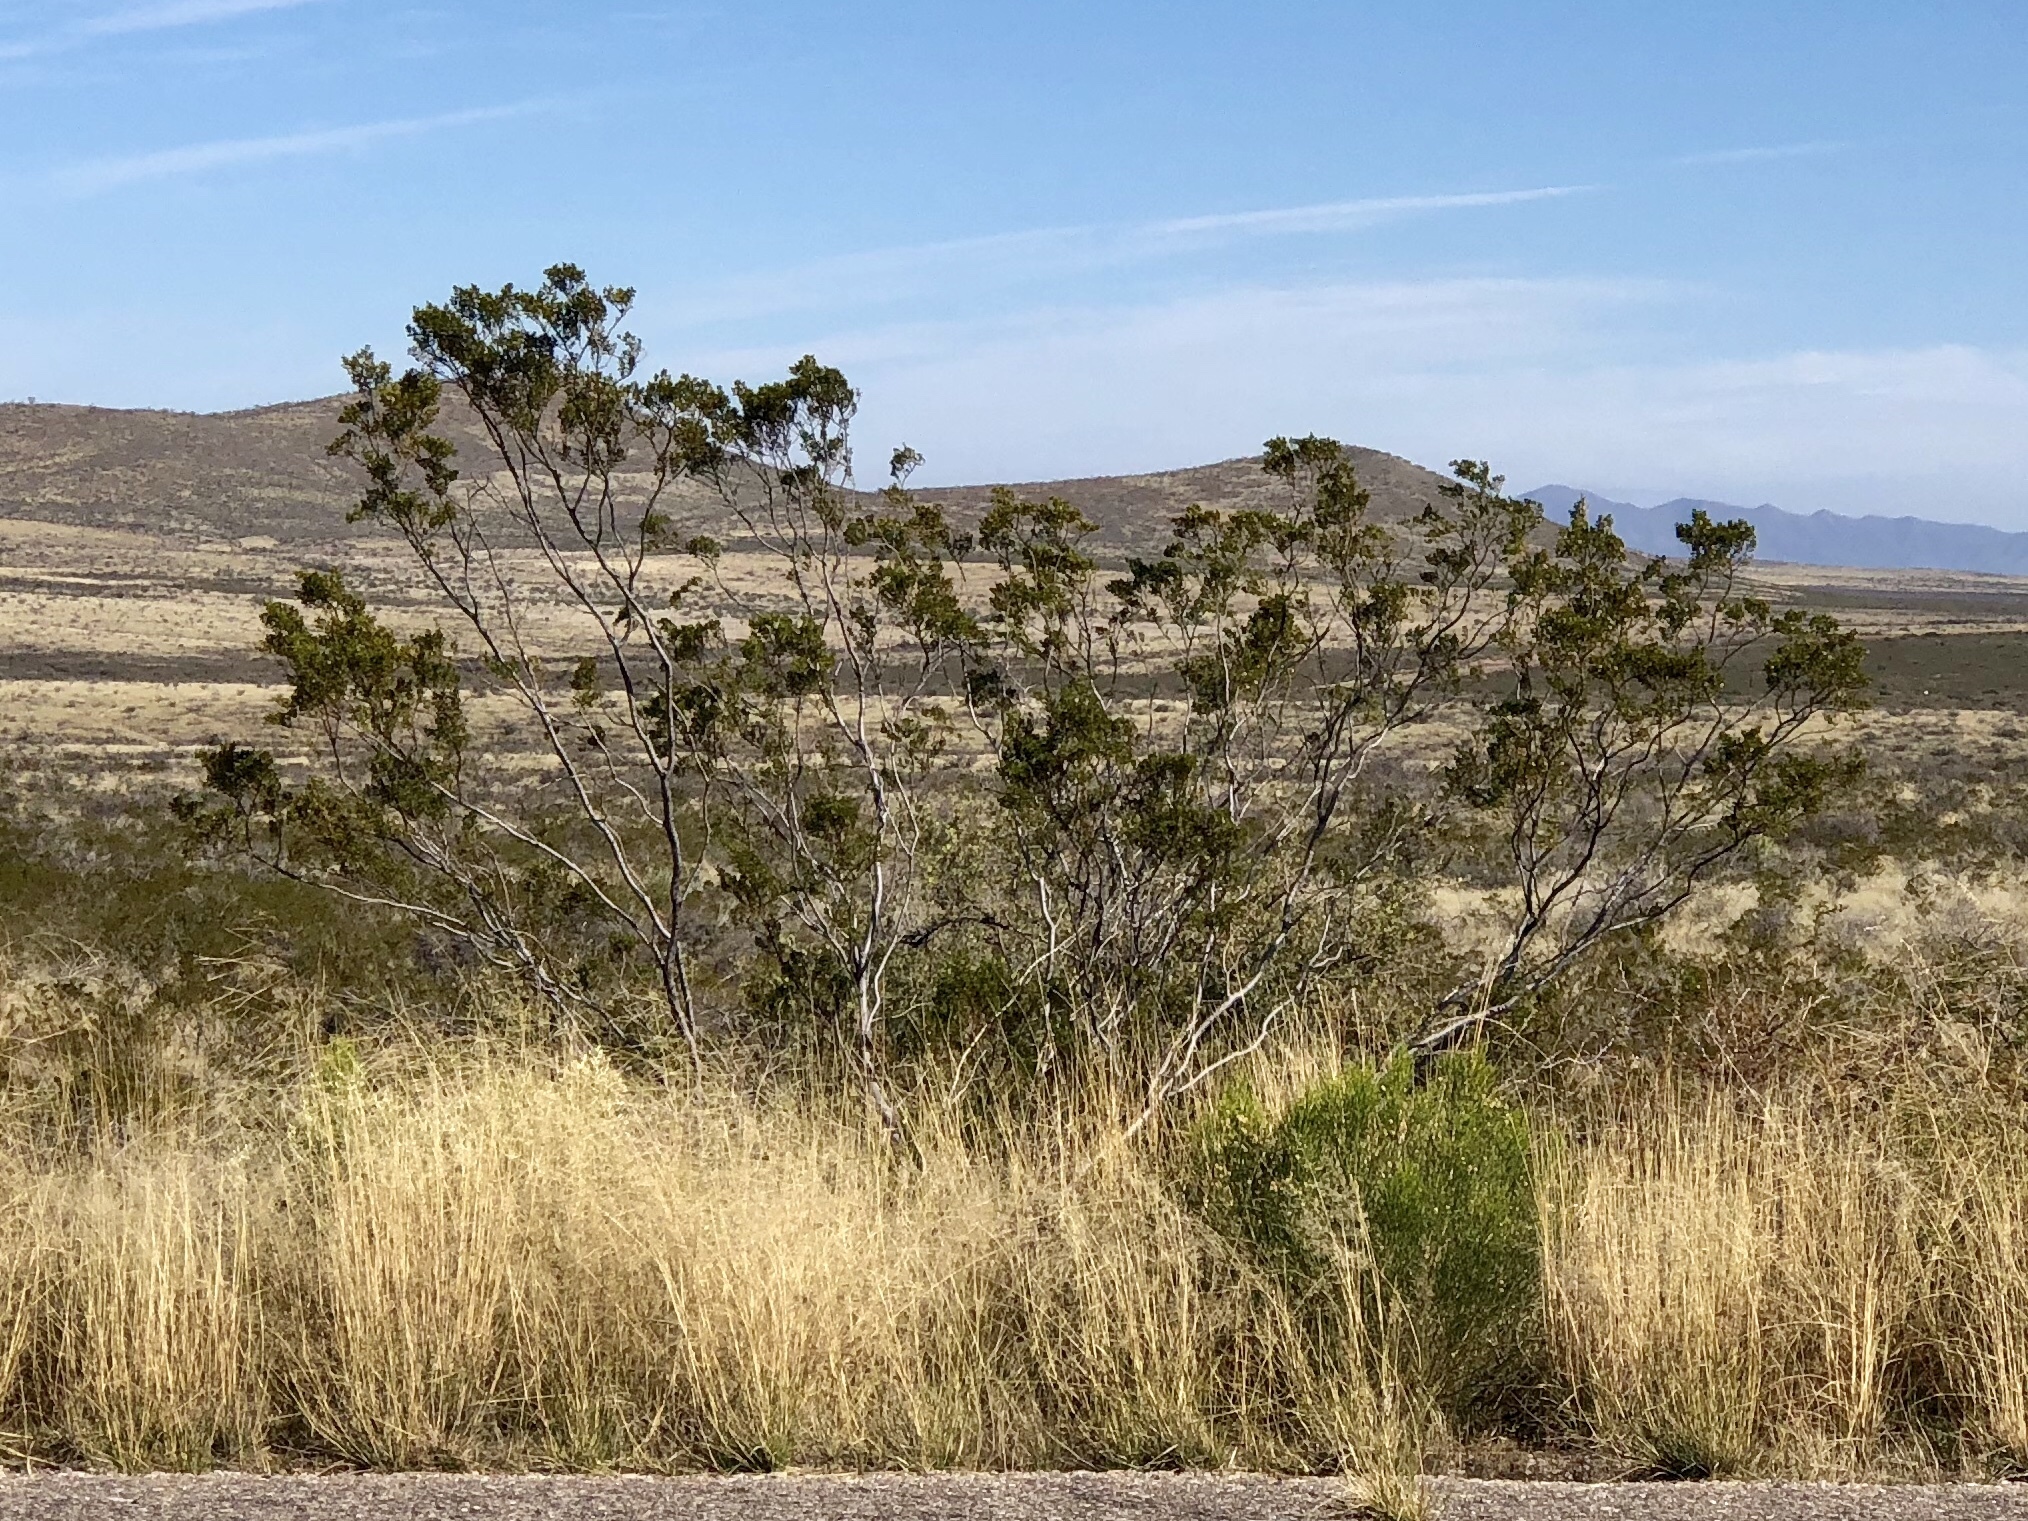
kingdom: Plantae
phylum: Tracheophyta
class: Magnoliopsida
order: Zygophyllales
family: Zygophyllaceae
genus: Larrea
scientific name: Larrea tridentata
